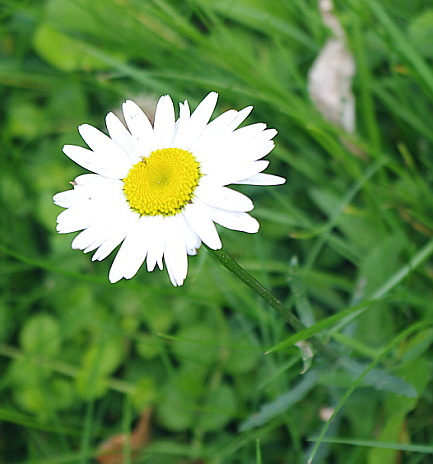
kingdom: Plantae
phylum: Tracheophyta
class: Magnoliopsida
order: Asterales
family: Asteraceae
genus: Leucanthemum
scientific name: Leucanthemum vulgare
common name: Oxeye daisy
